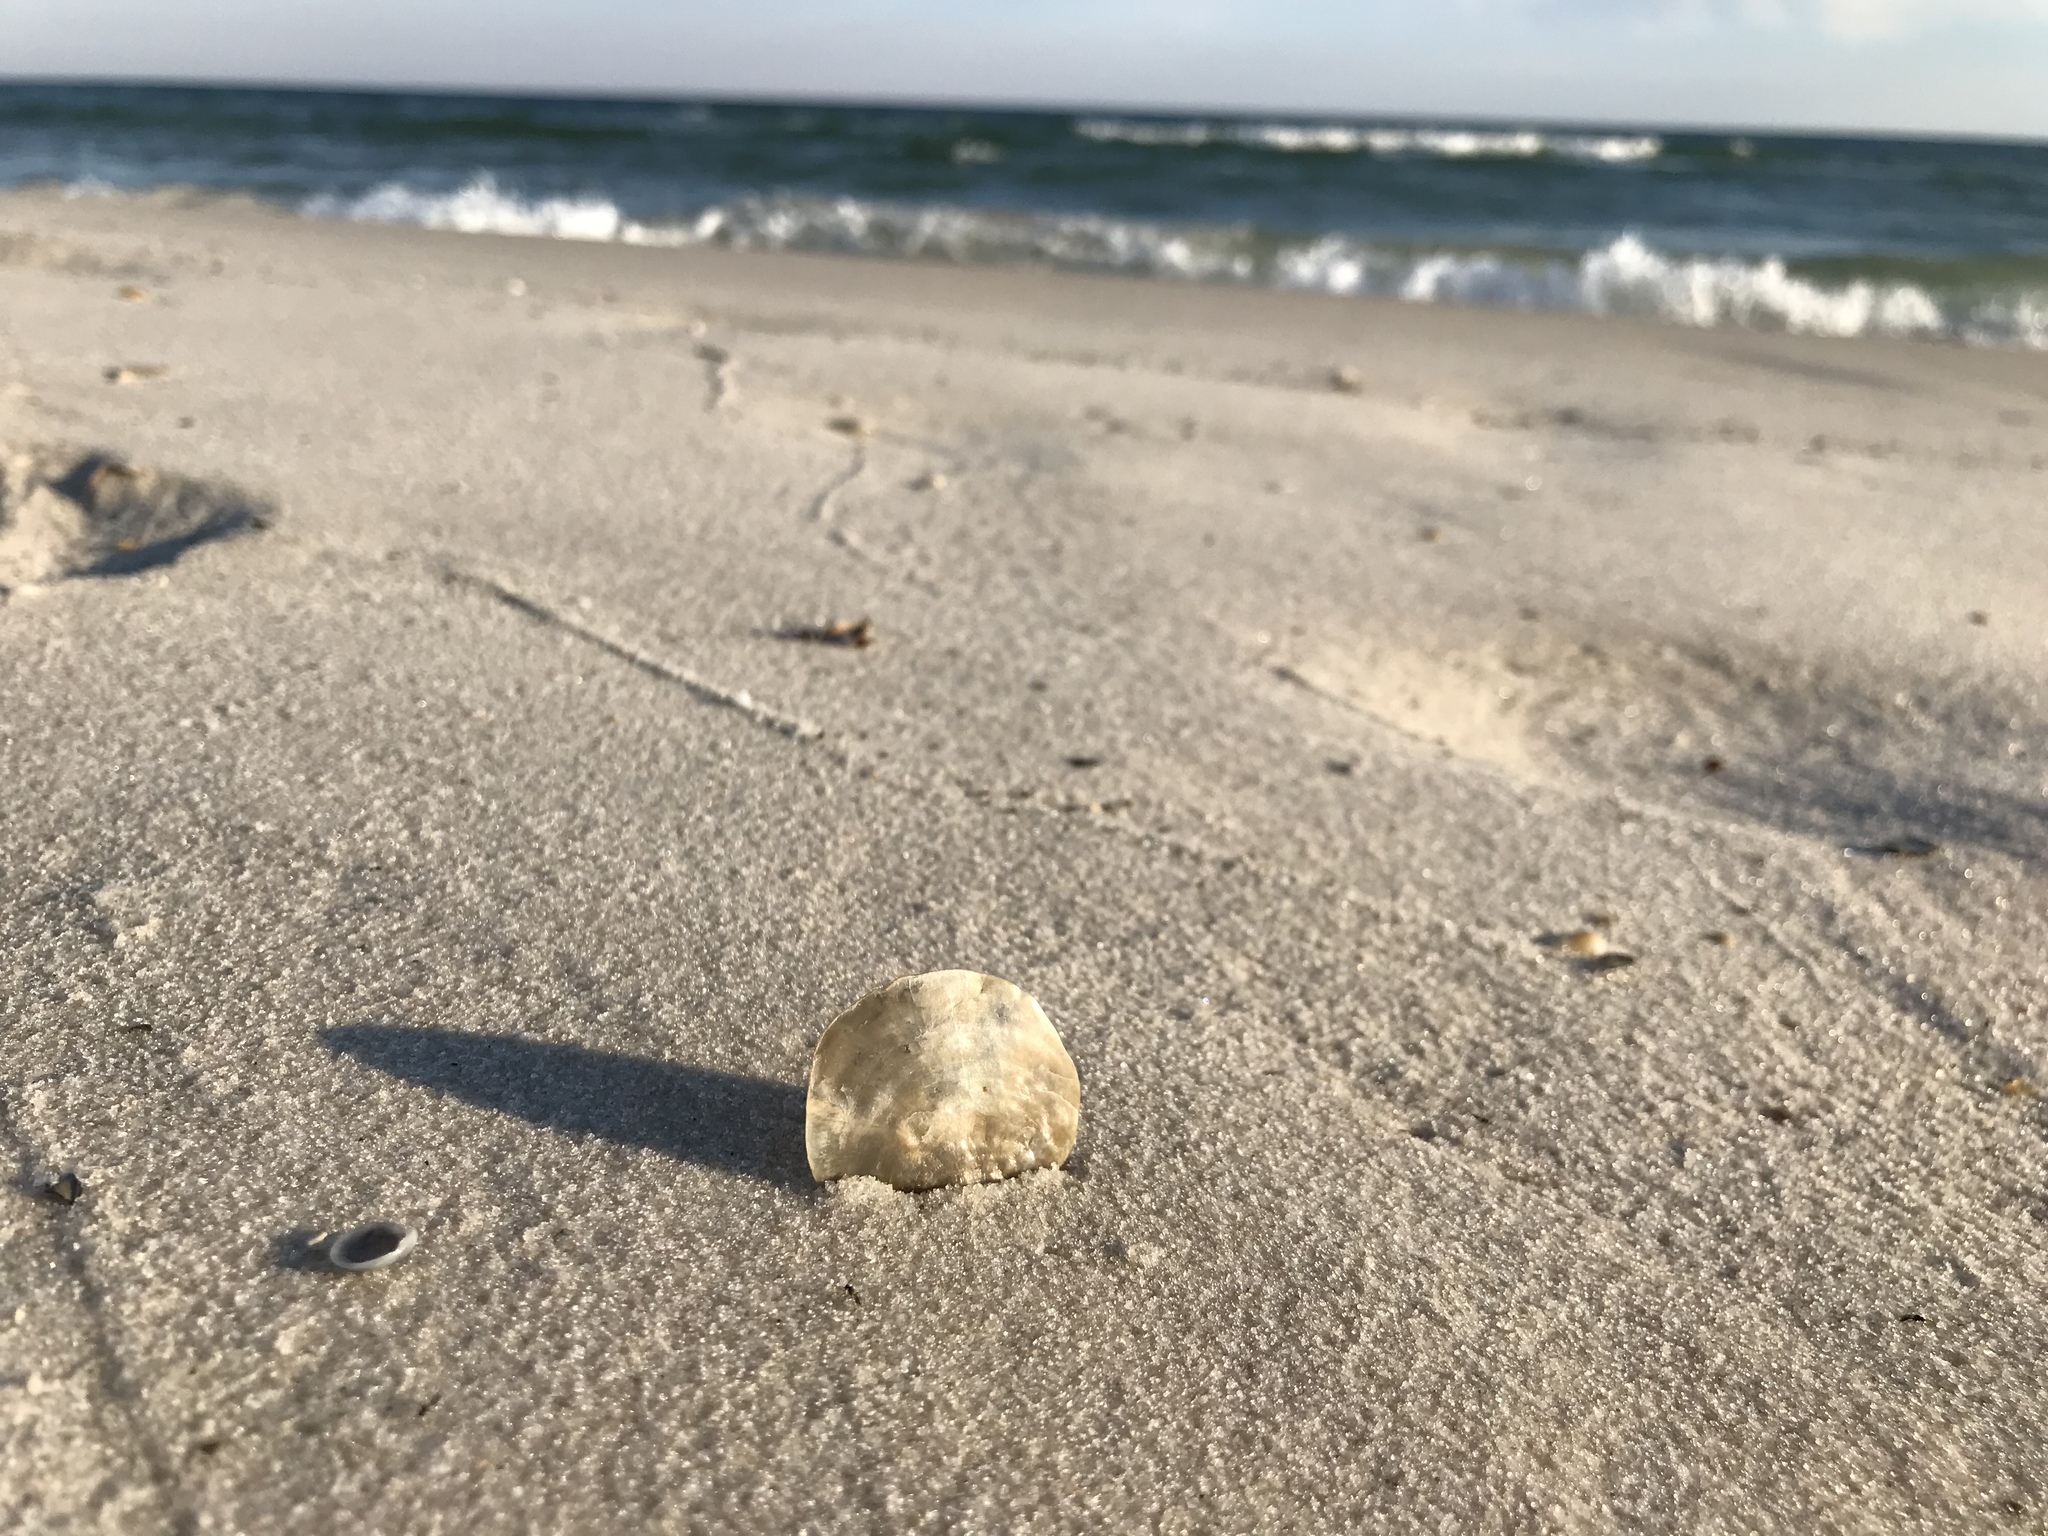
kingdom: Animalia
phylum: Mollusca
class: Bivalvia
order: Pectinida
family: Anomiidae
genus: Anomia
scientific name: Anomia simplex
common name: Common jingle shell
